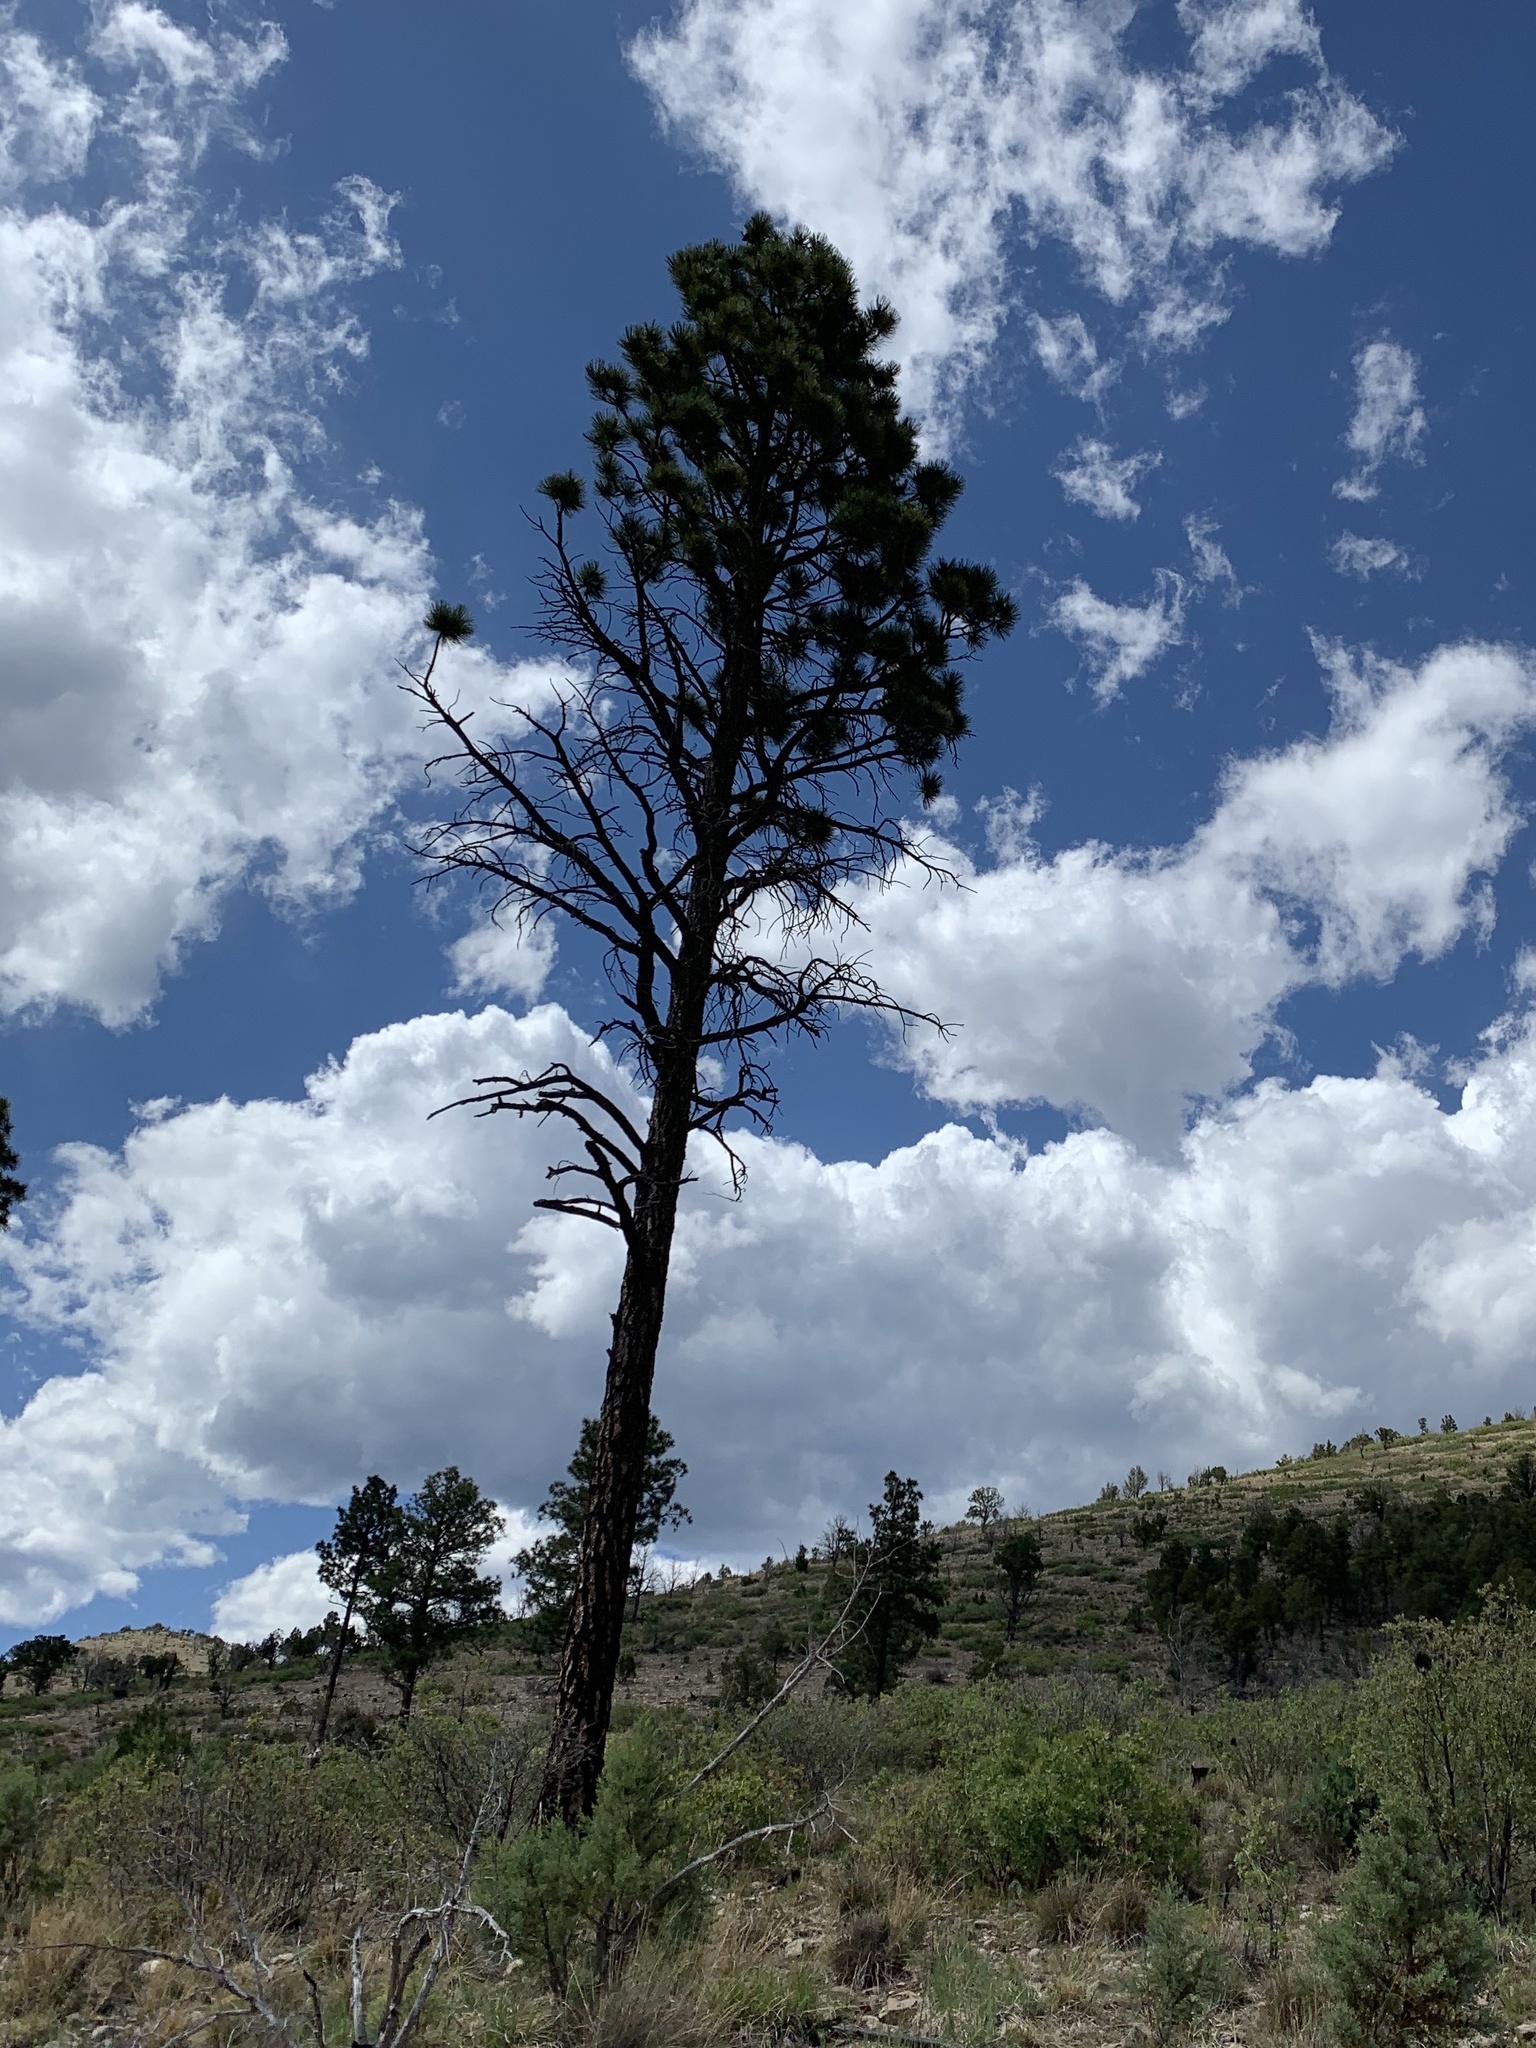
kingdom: Plantae
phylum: Tracheophyta
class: Pinopsida
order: Pinales
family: Pinaceae
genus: Pinus
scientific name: Pinus ponderosa
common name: Western yellow-pine
